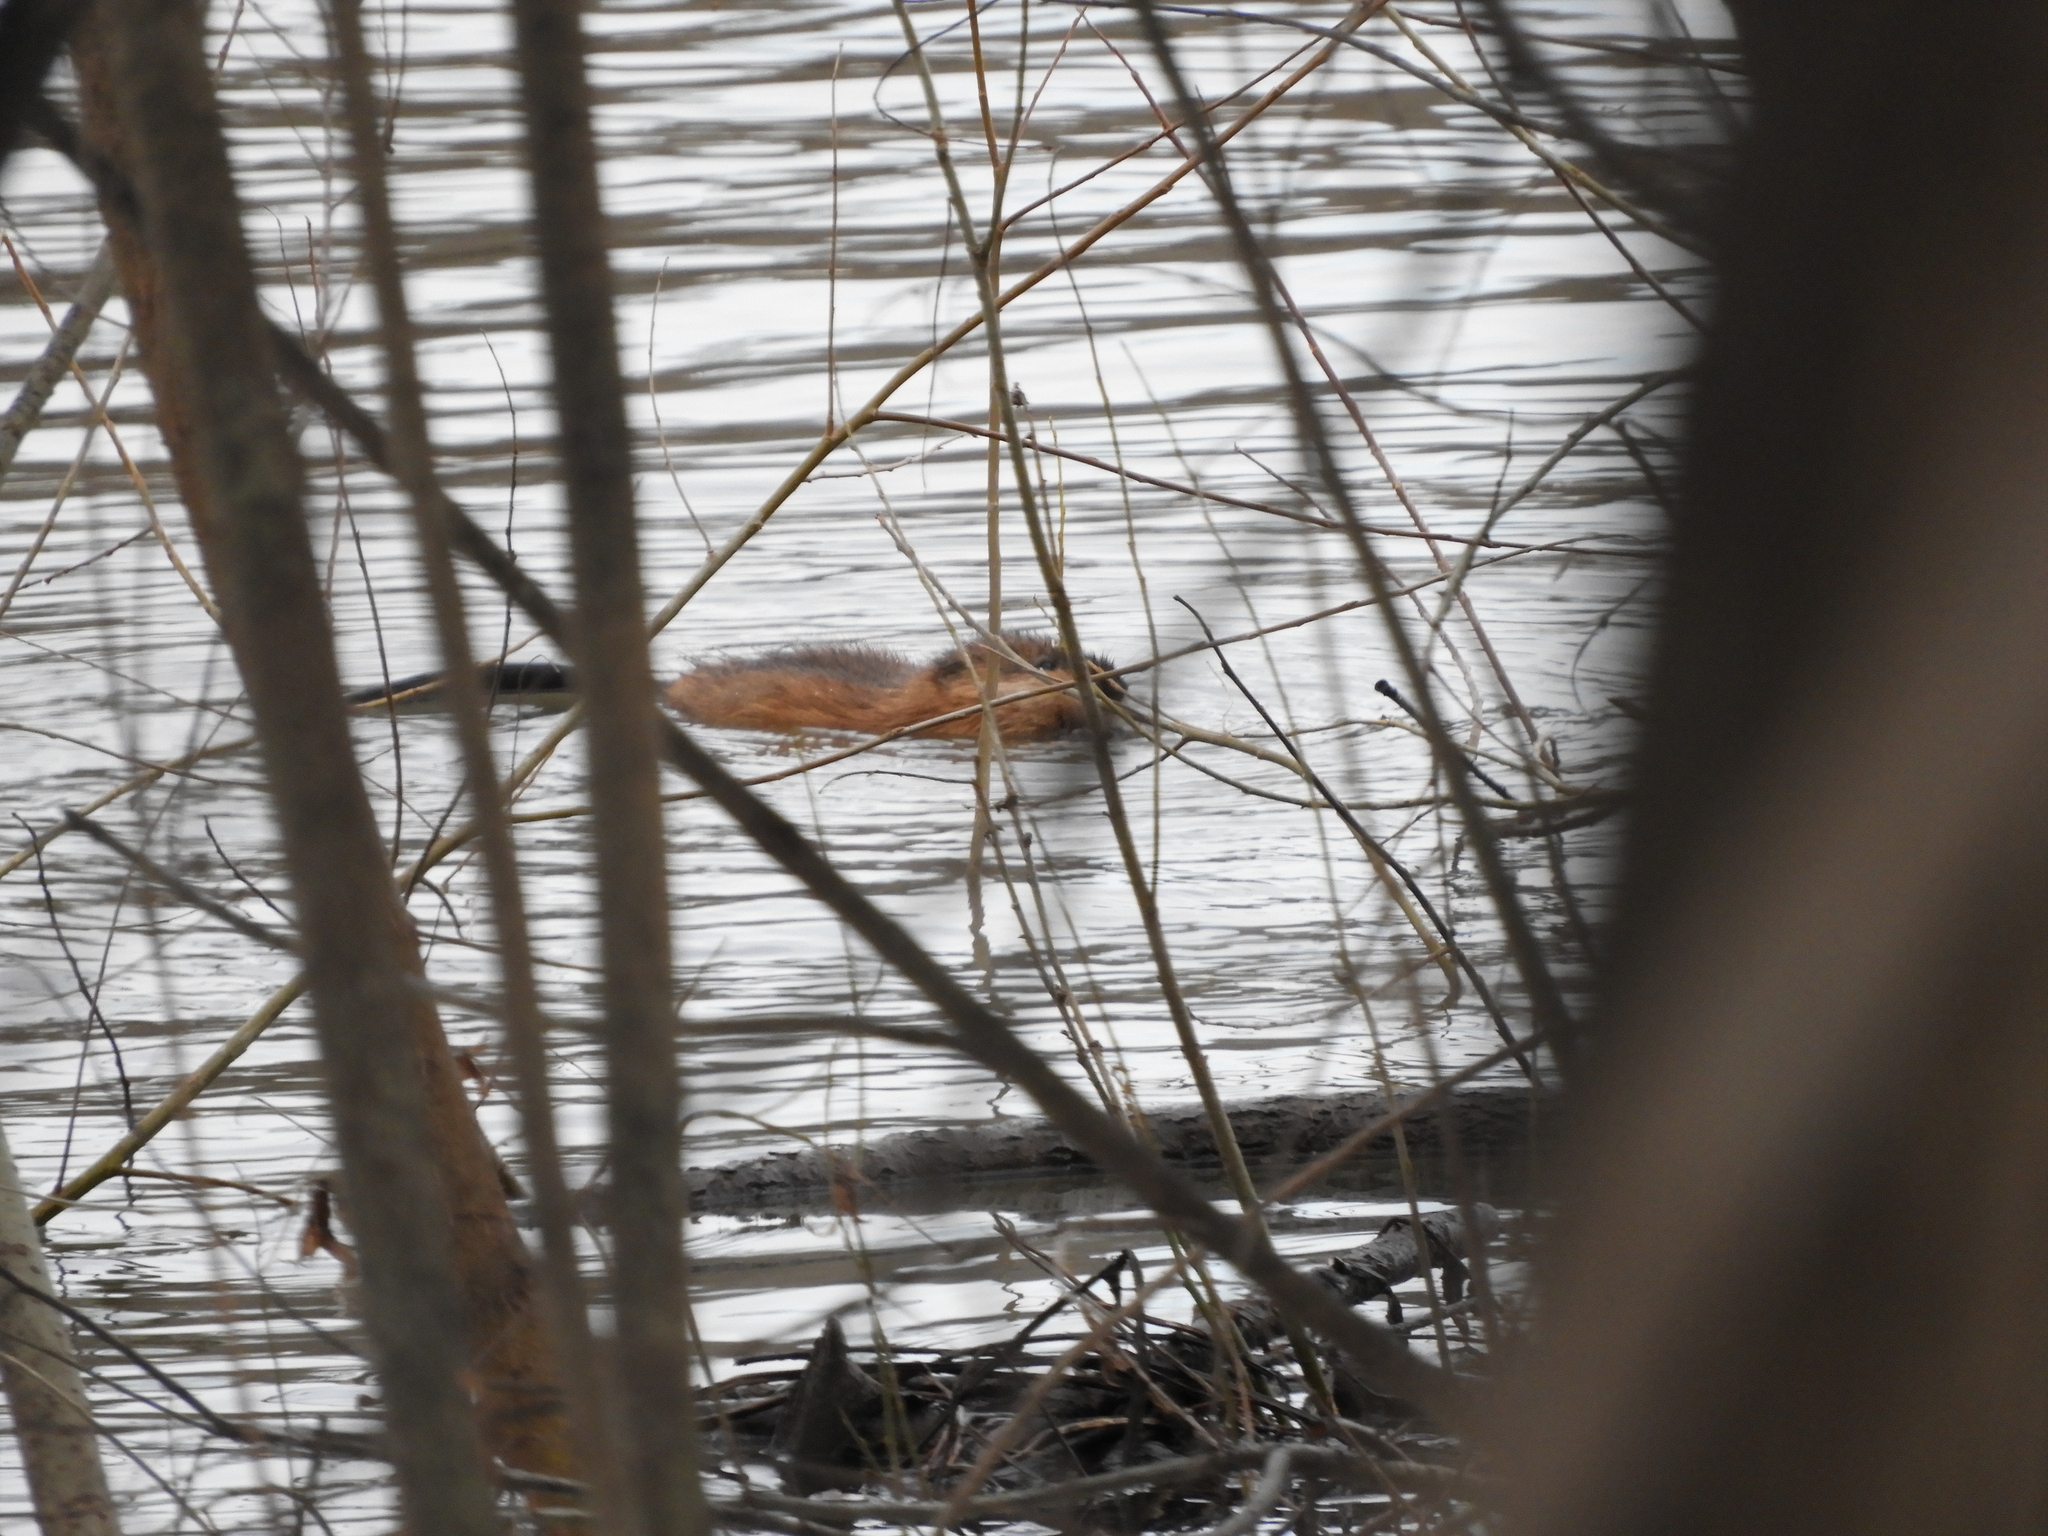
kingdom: Animalia
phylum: Chordata
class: Mammalia
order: Rodentia
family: Cricetidae
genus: Ondatra
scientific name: Ondatra zibethicus
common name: Muskrat
